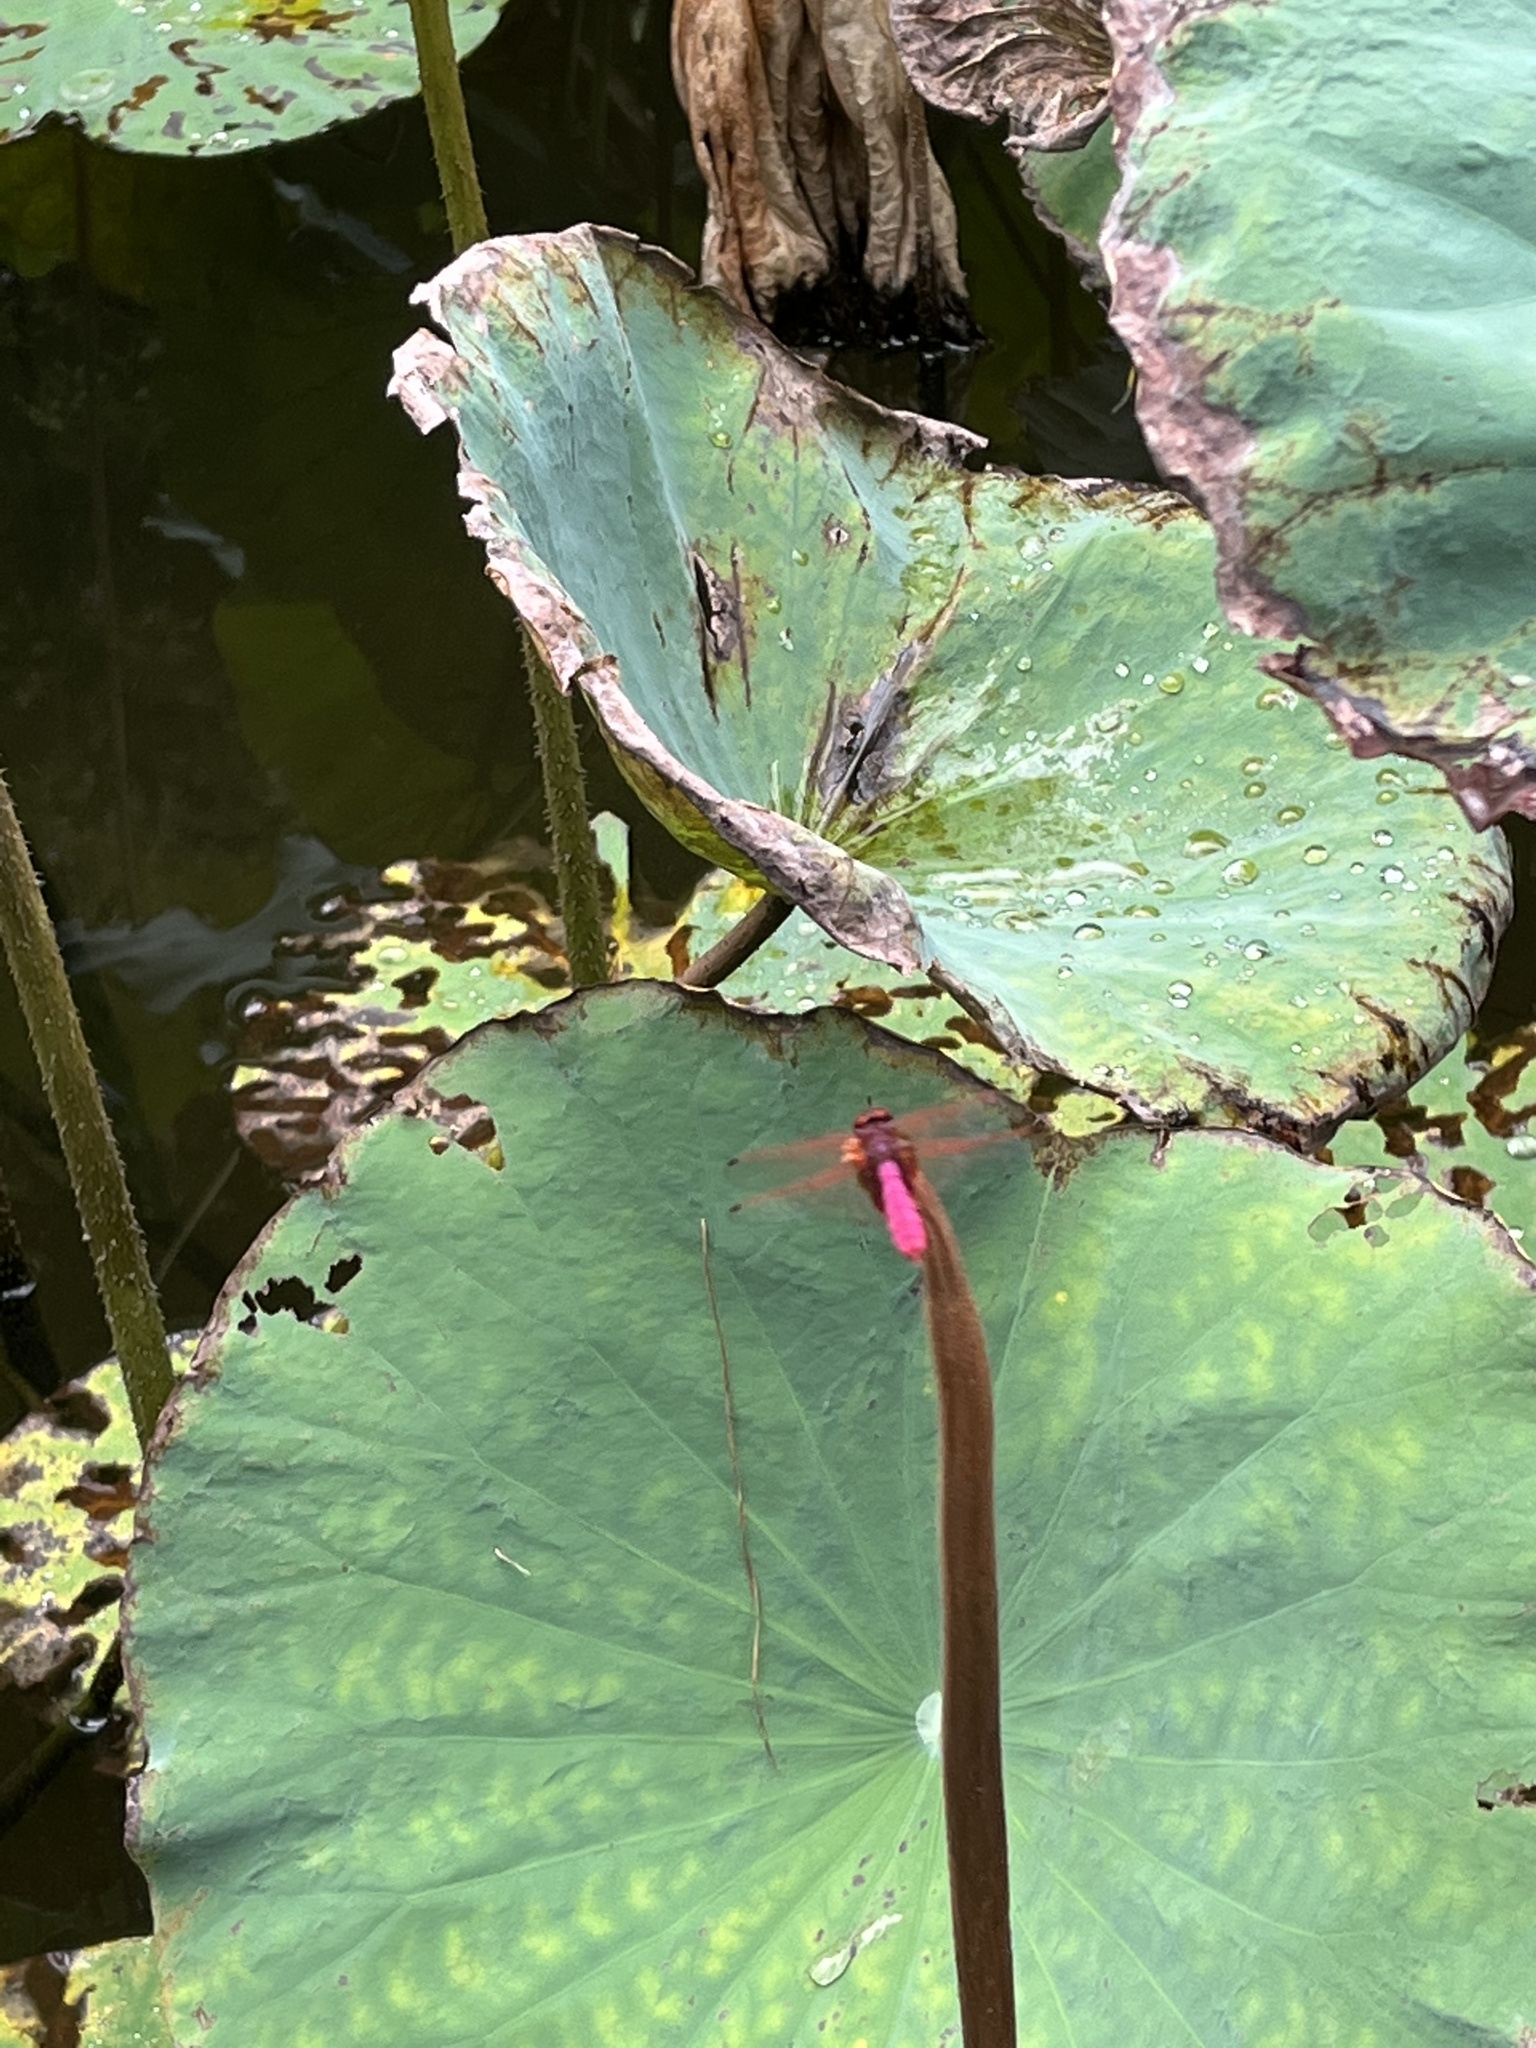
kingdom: Animalia
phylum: Arthropoda
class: Insecta
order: Odonata
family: Libellulidae
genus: Trithemis
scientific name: Trithemis aurora
